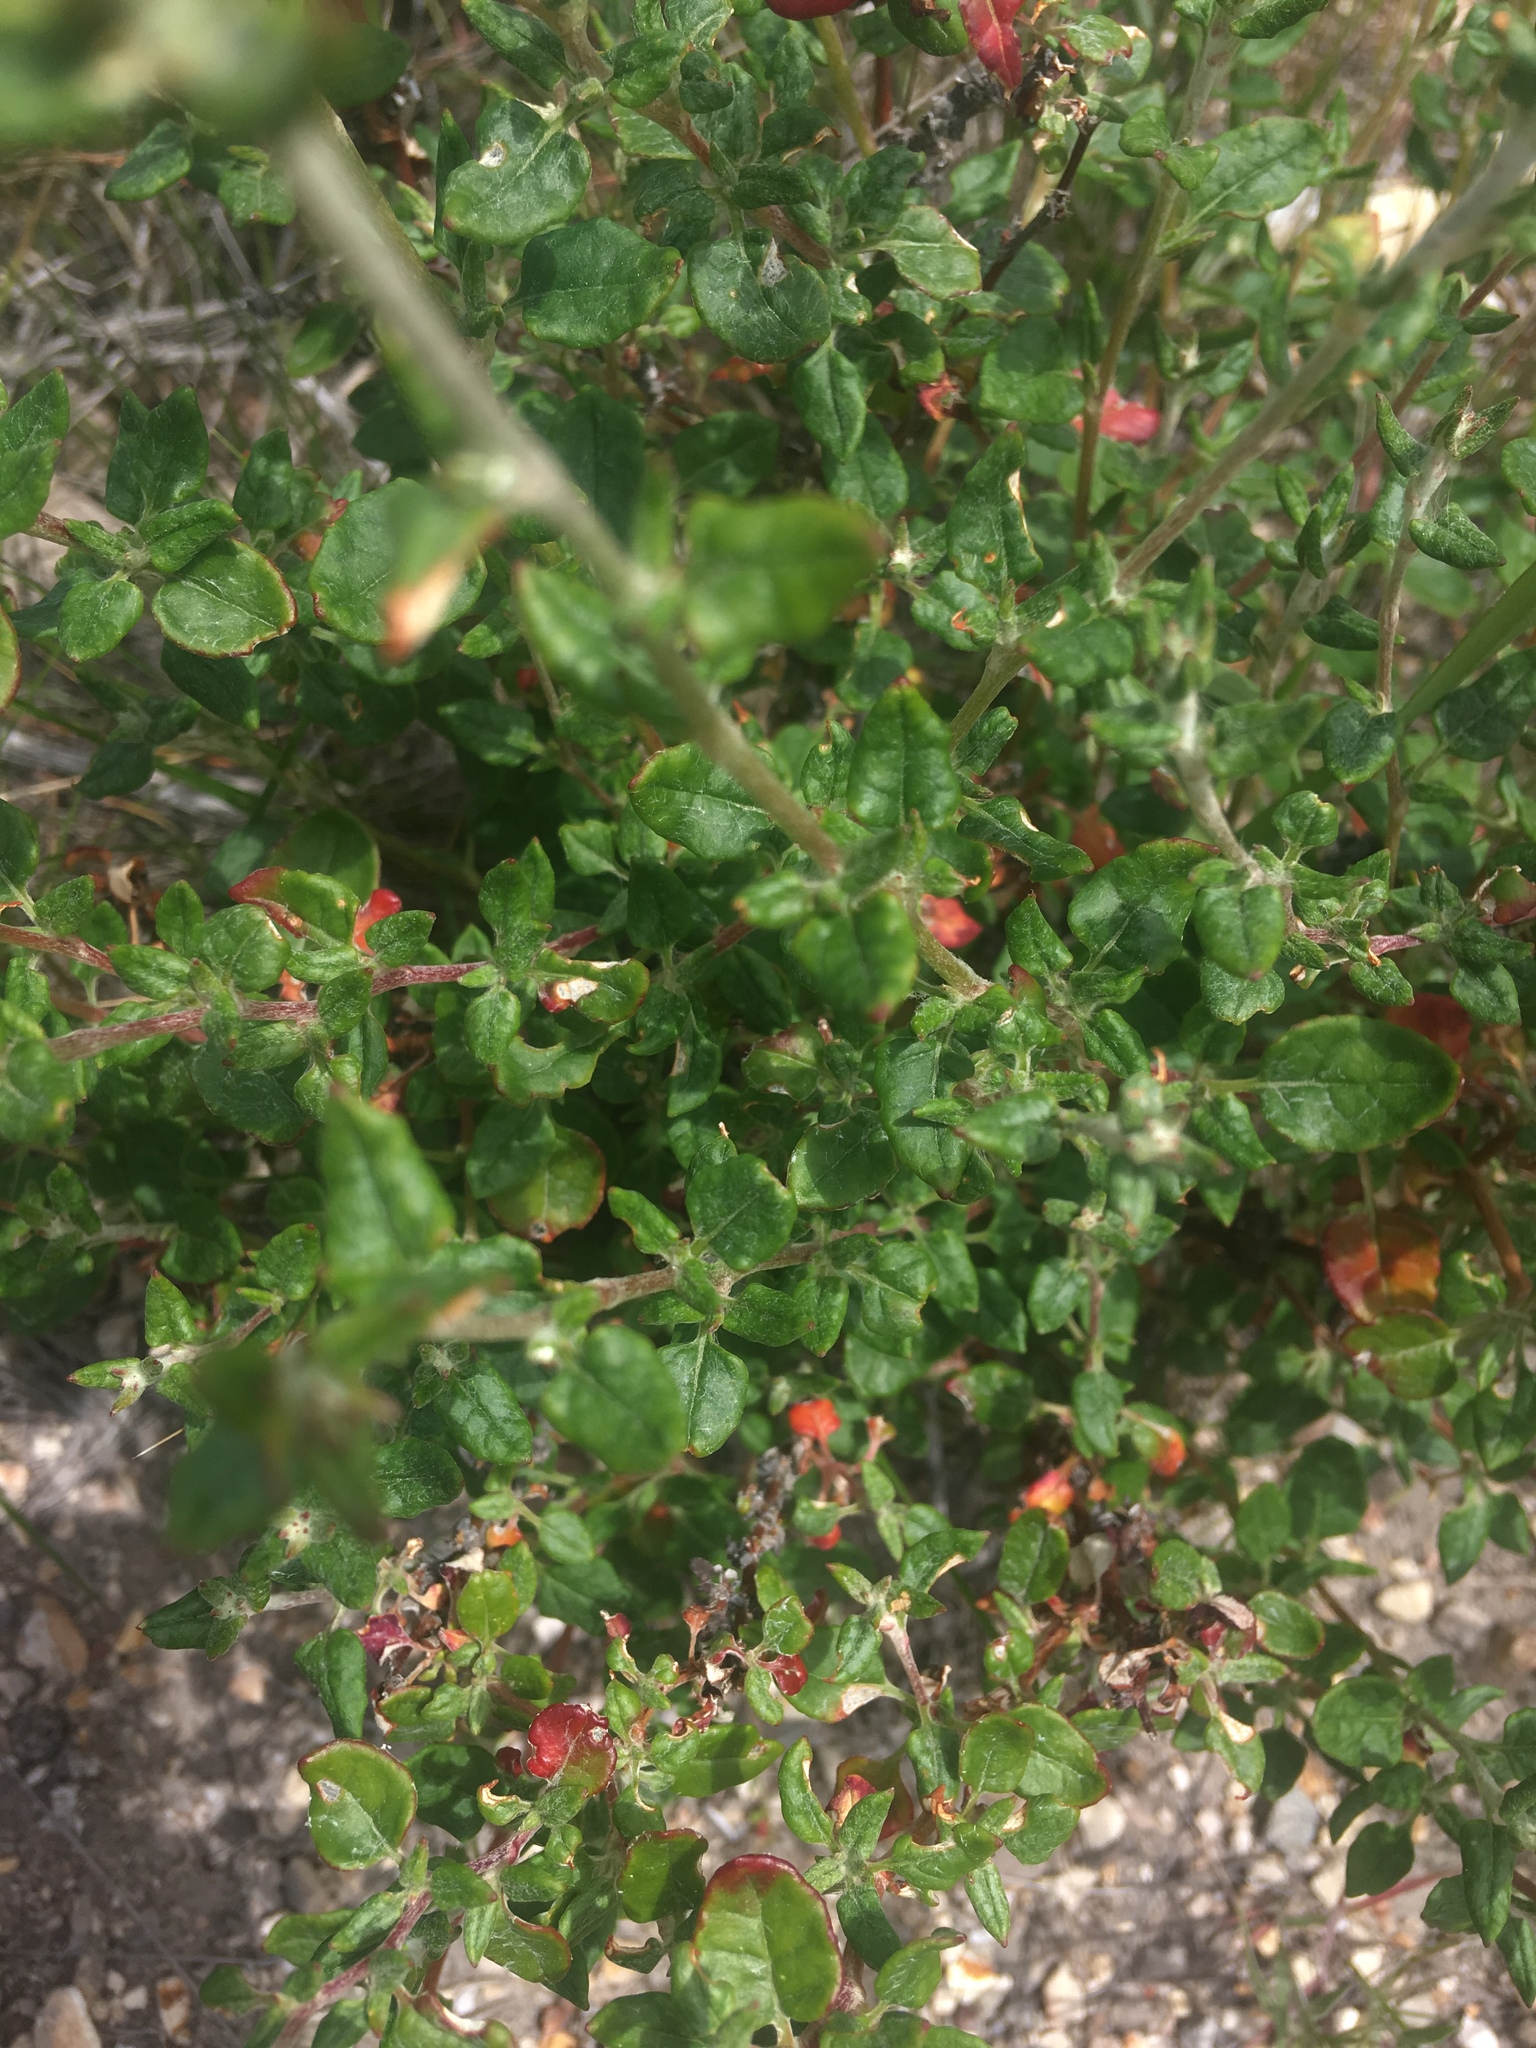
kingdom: Plantae
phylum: Tracheophyta
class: Magnoliopsida
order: Caryophyllales
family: Polygonaceae
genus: Eriogonum
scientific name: Eriogonum parvifolium
